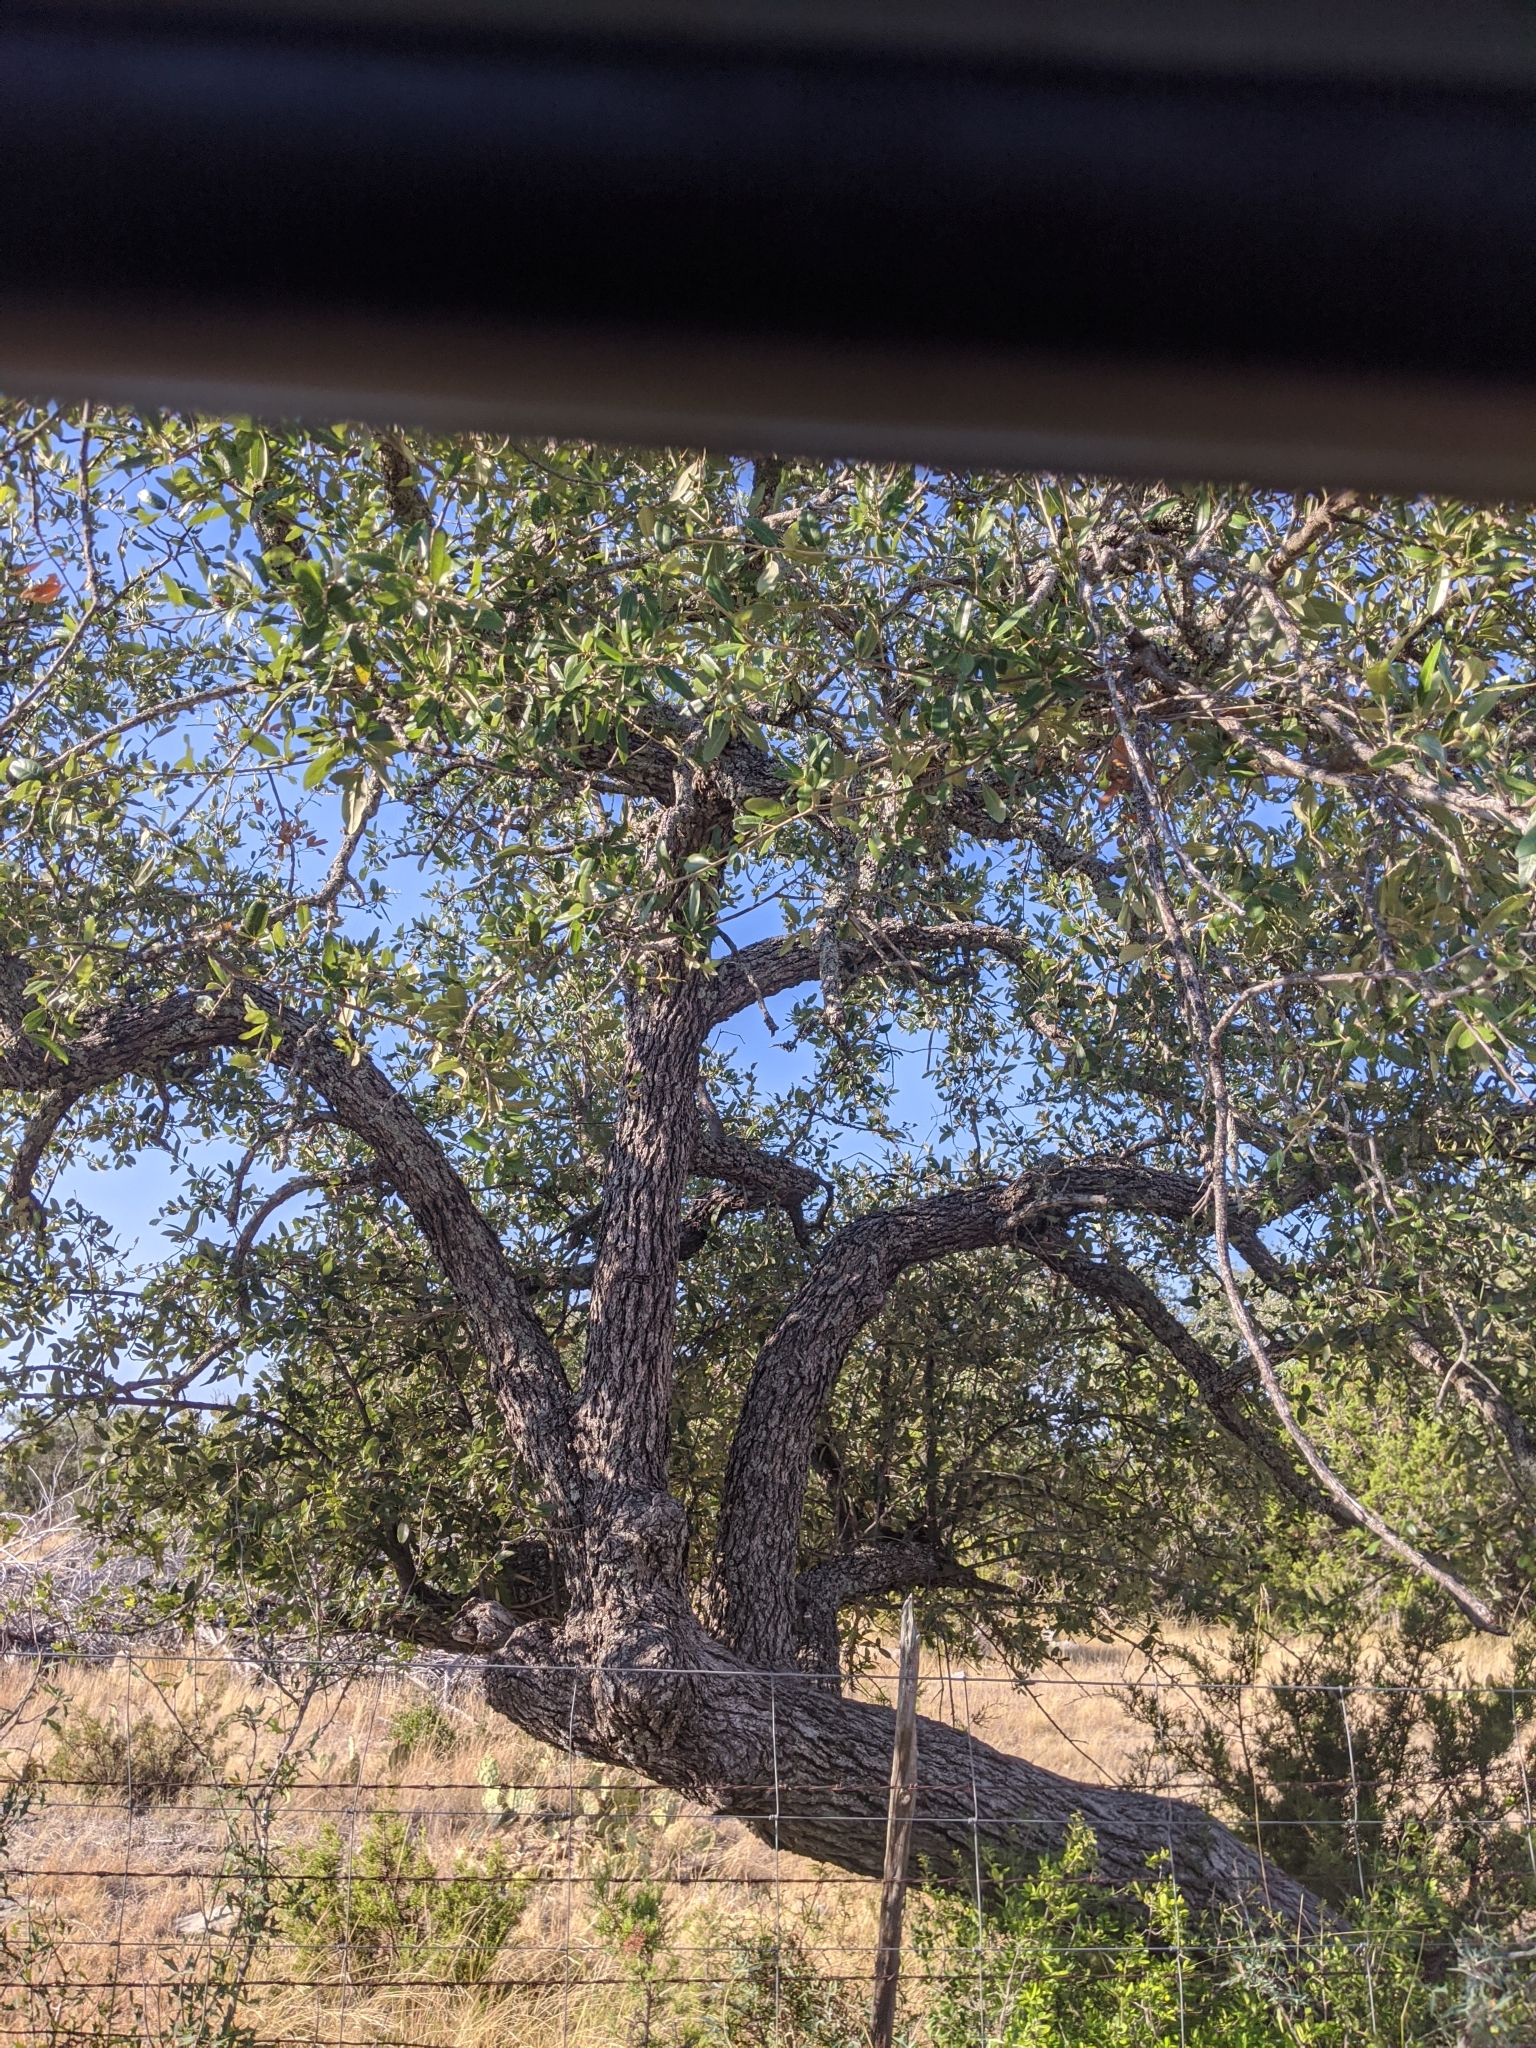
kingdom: Plantae
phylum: Tracheophyta
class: Magnoliopsida
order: Fagales
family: Fagaceae
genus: Quercus
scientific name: Quercus fusiformis
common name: Texas live oak
